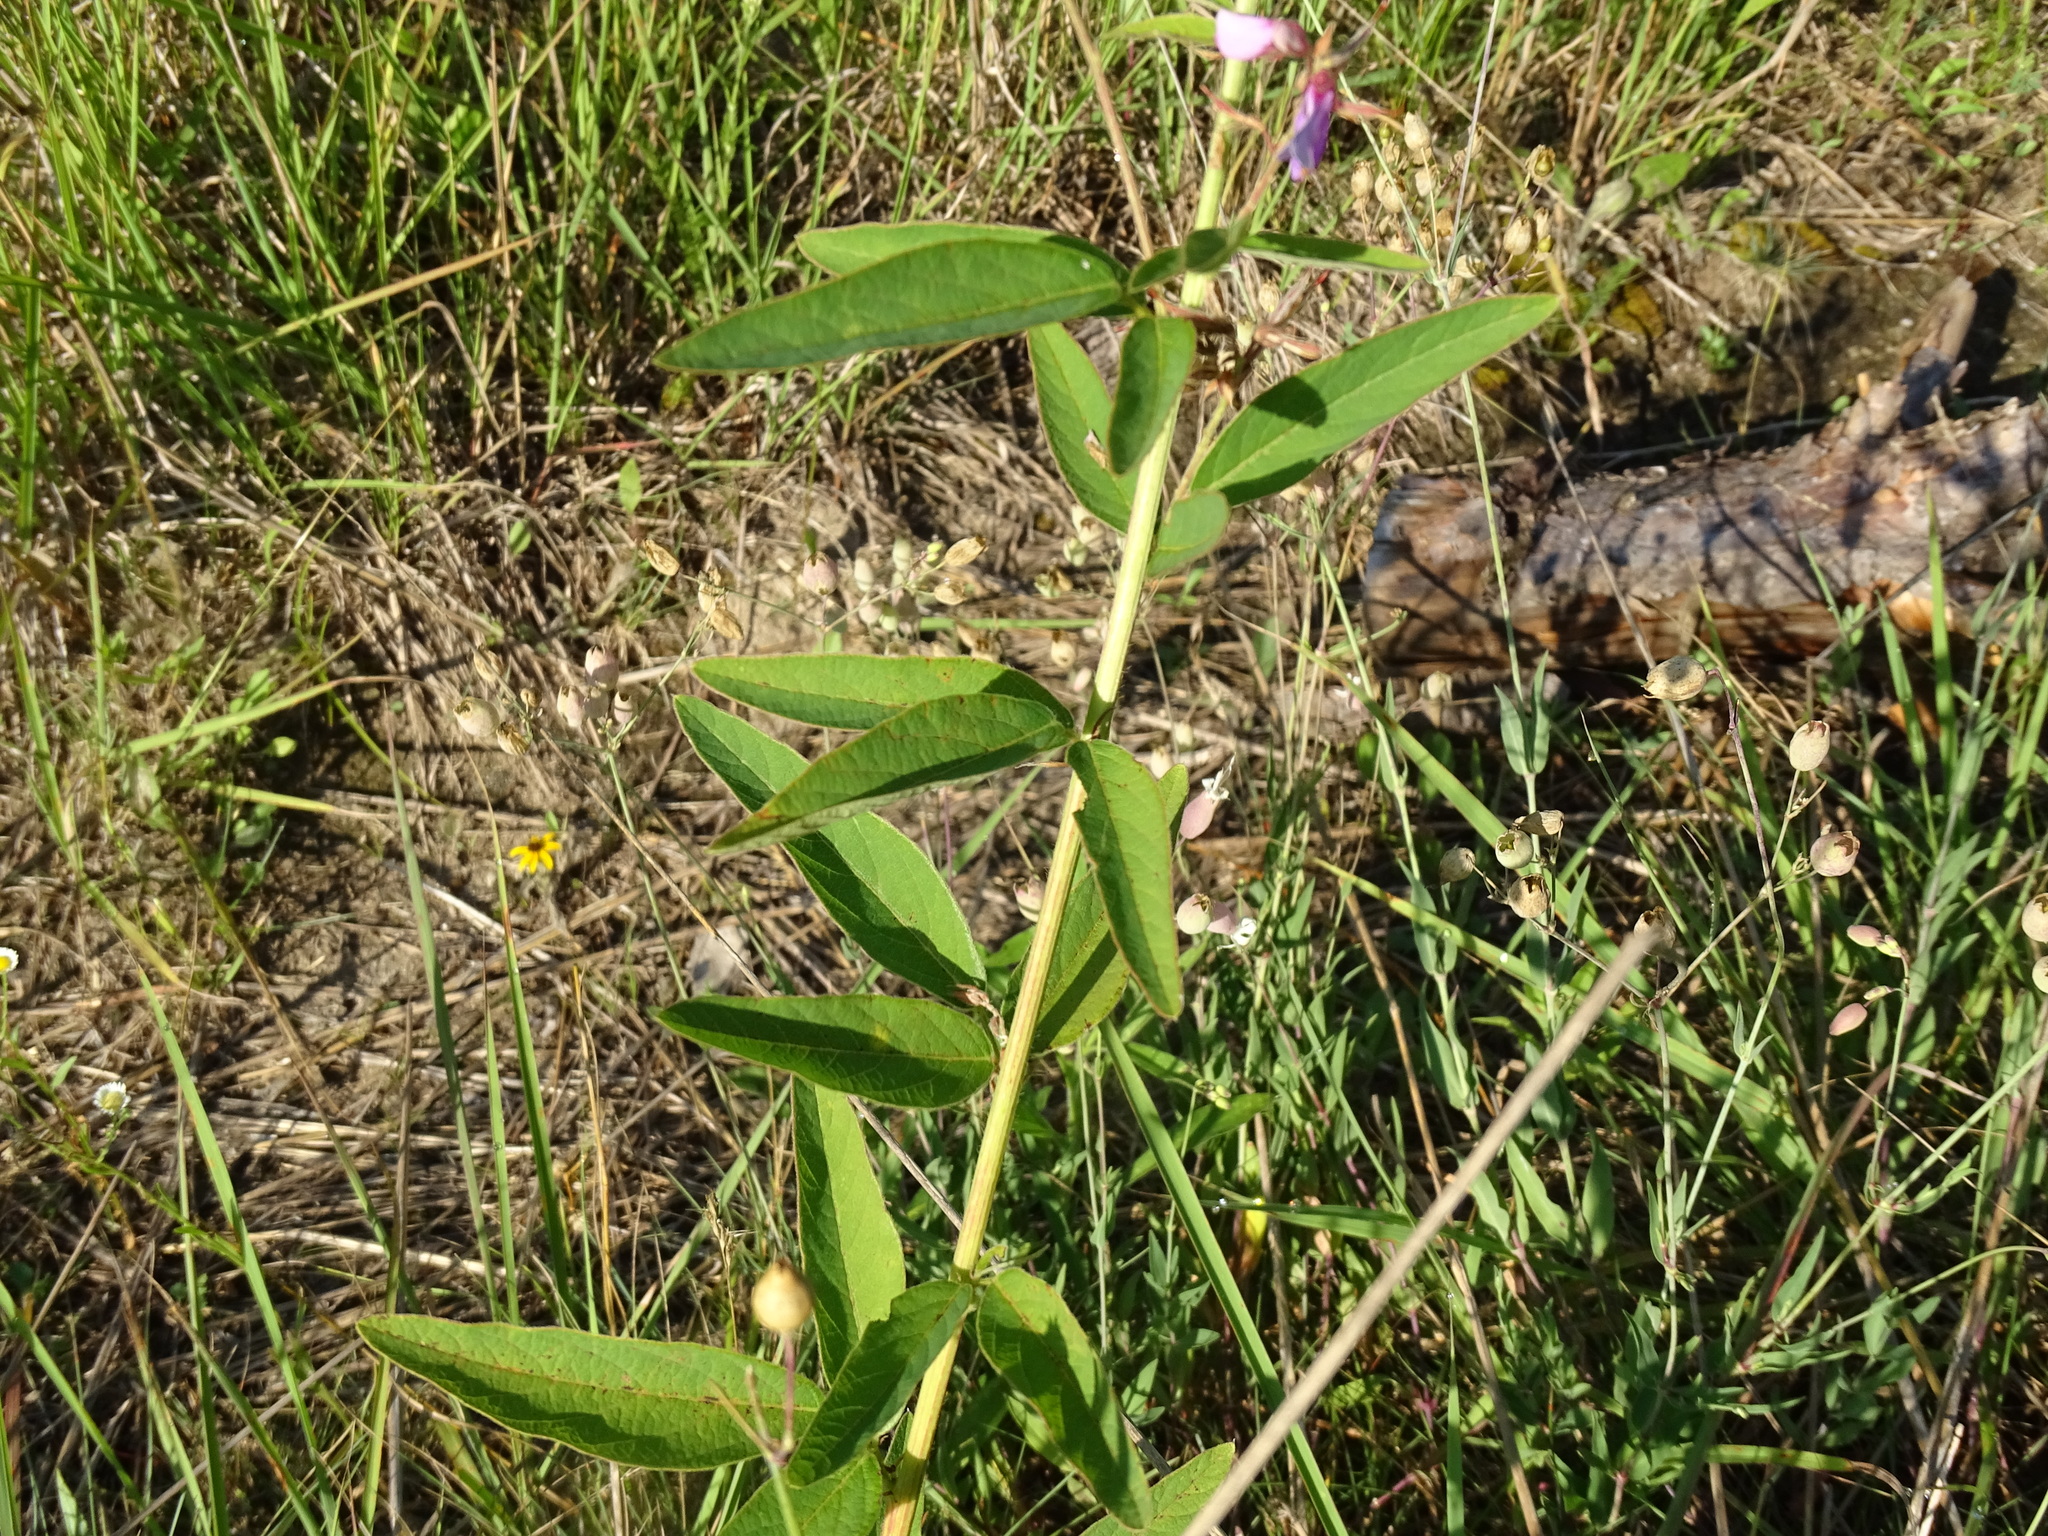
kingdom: Plantae
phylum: Tracheophyta
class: Magnoliopsida
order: Fabales
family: Fabaceae
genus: Desmodium
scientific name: Desmodium canadense
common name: Canada tick-trefoil
